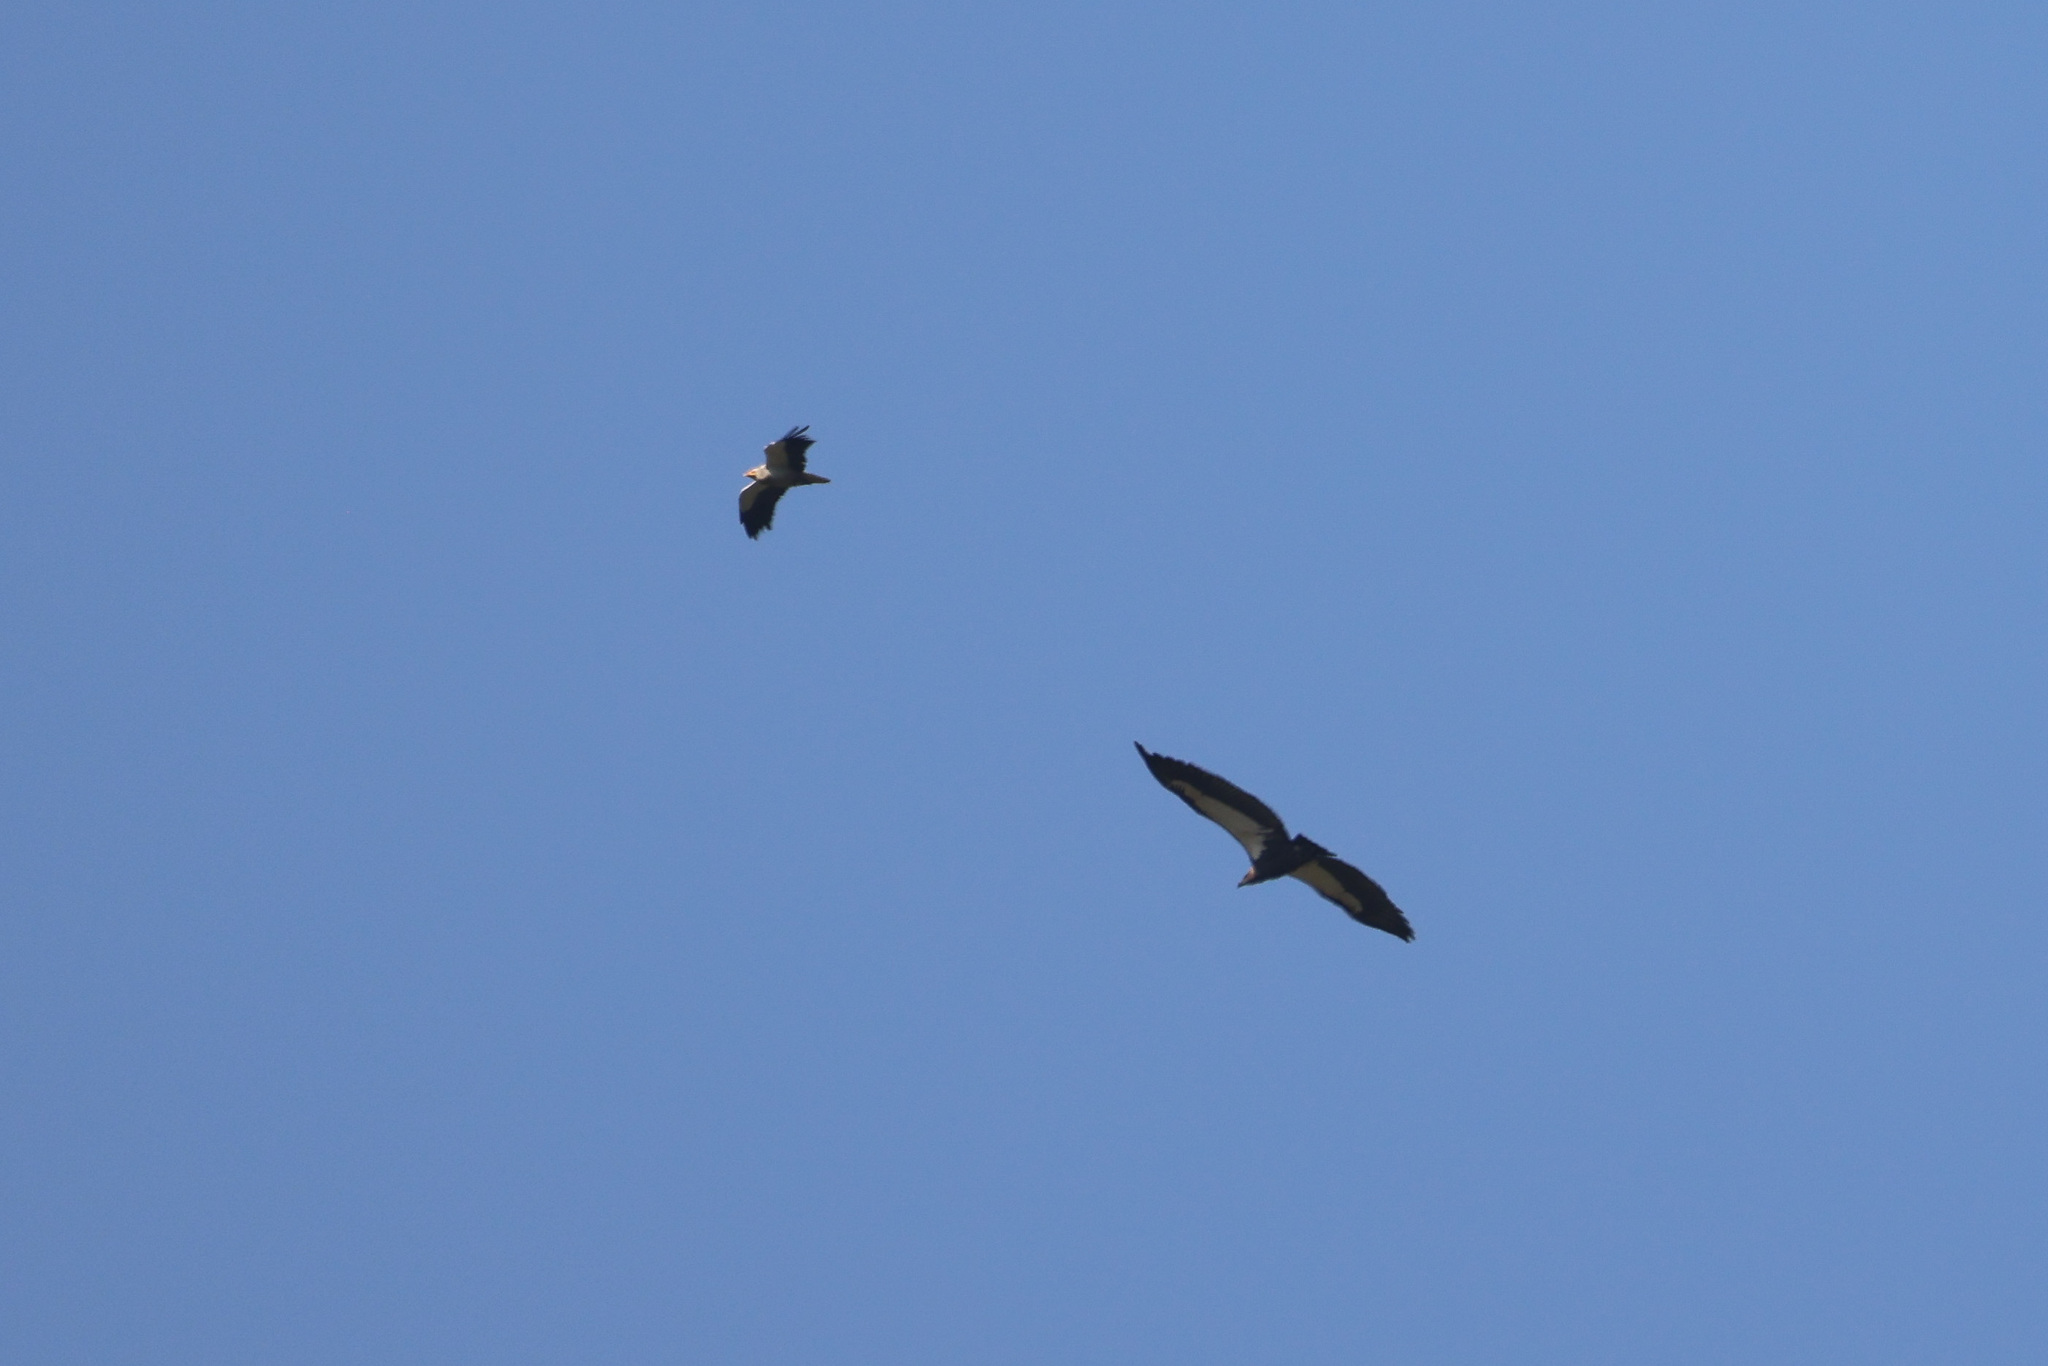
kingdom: Animalia
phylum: Chordata
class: Aves
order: Accipitriformes
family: Accipitridae
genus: Neophron
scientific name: Neophron percnopterus
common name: Egyptian vulture
